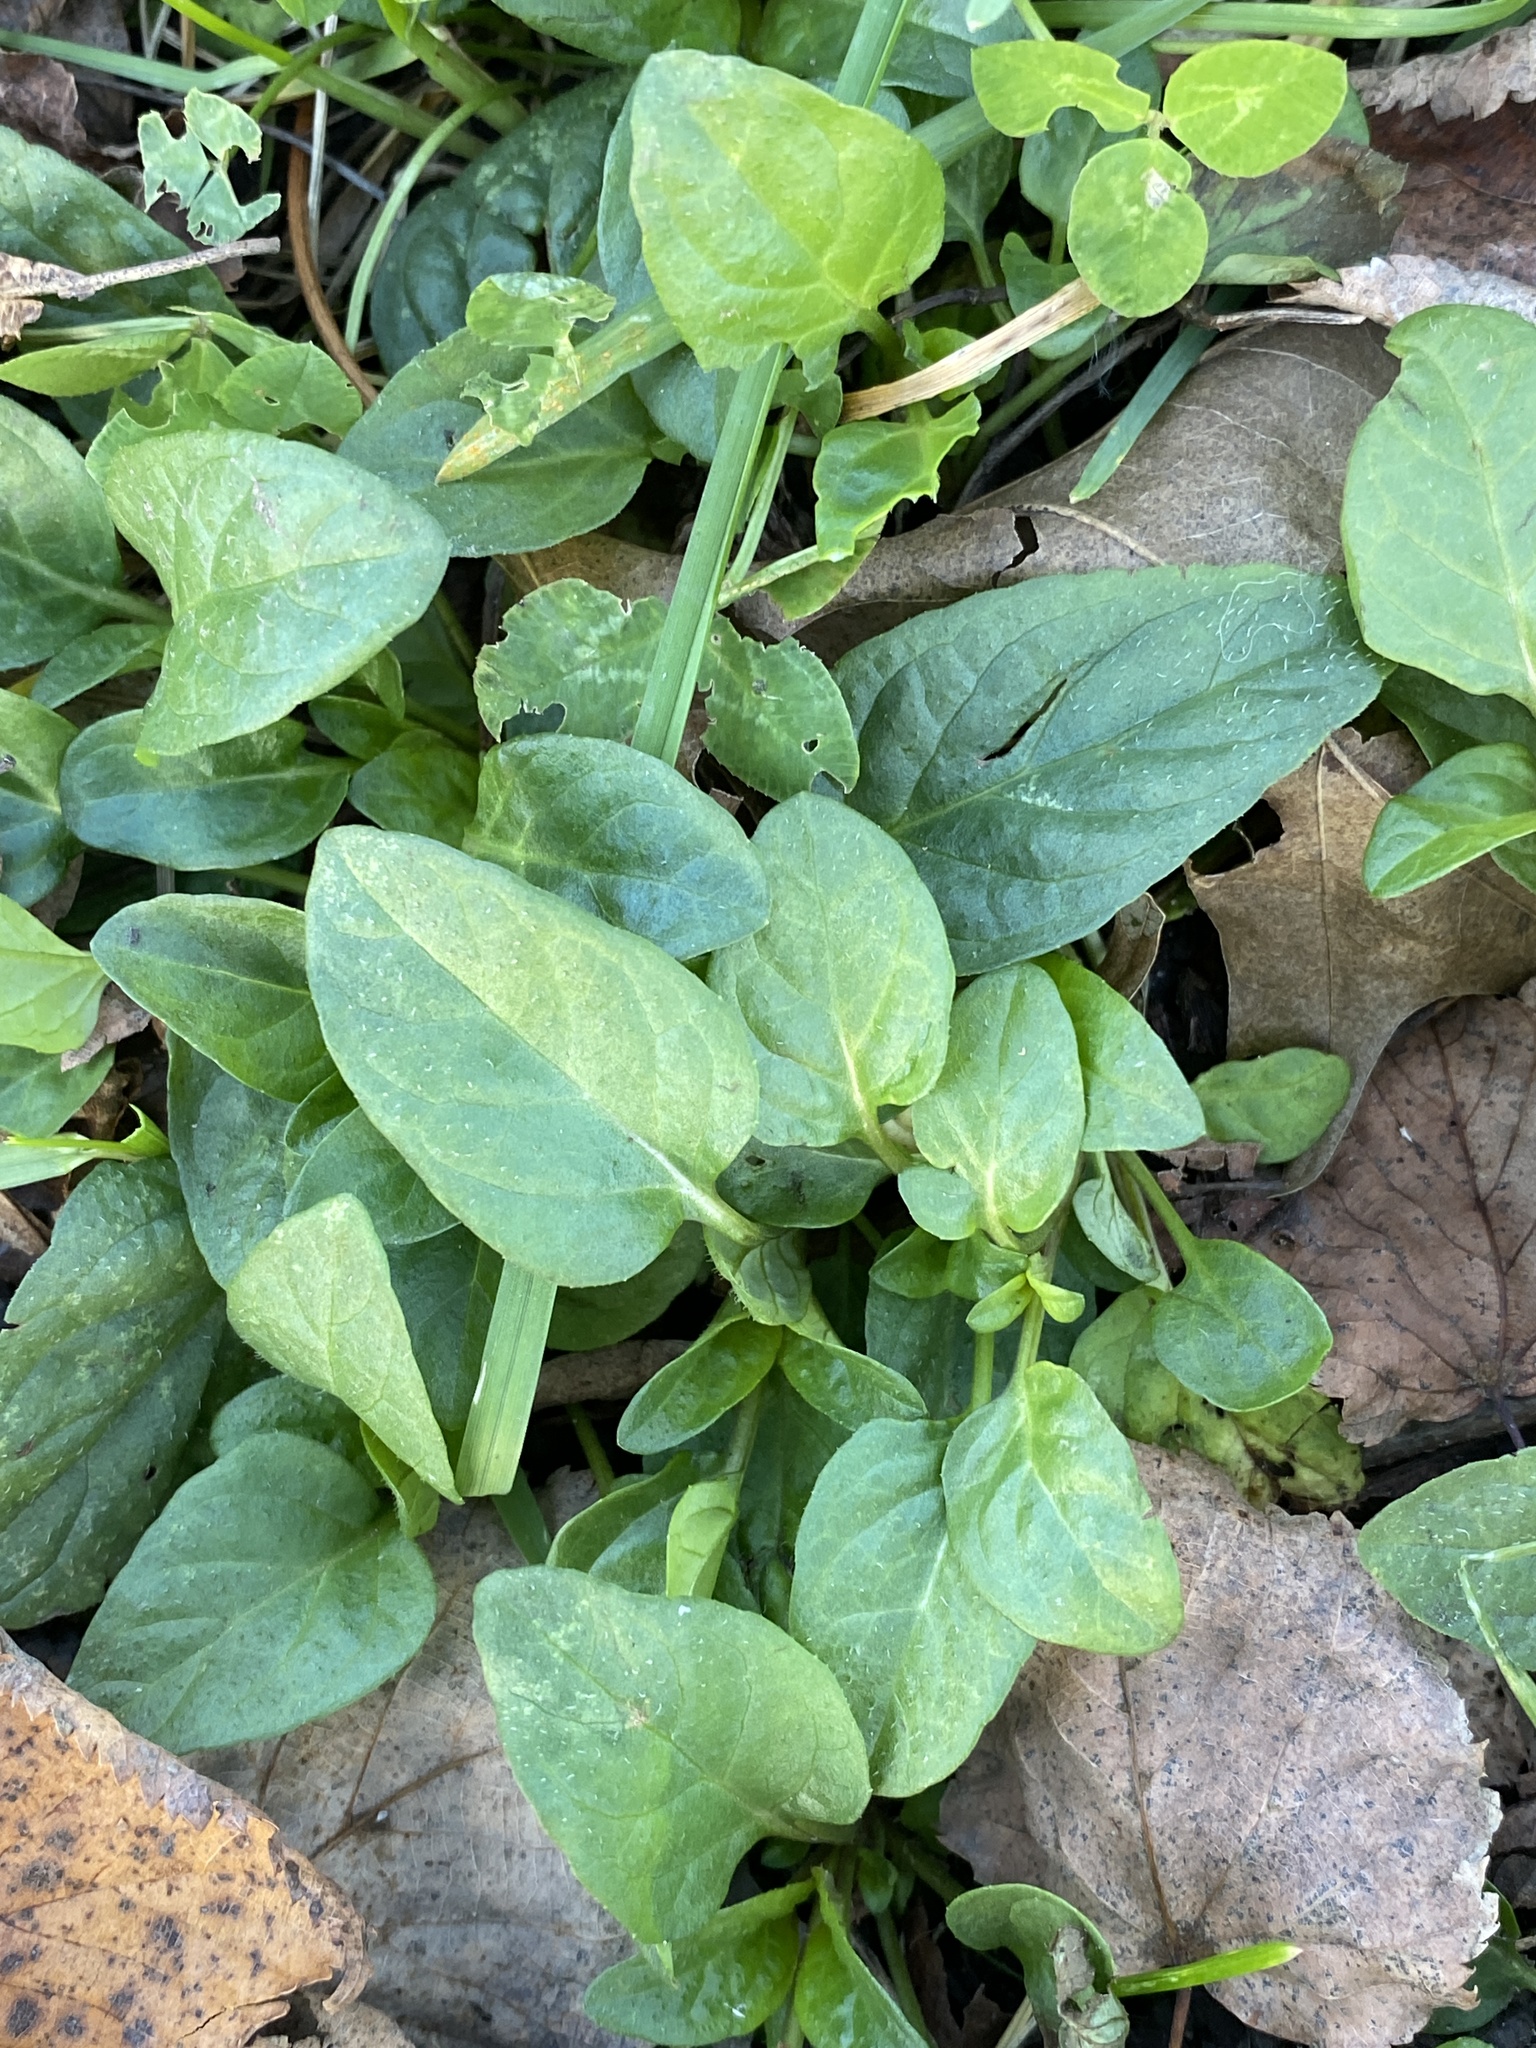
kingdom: Plantae
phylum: Tracheophyta
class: Magnoliopsida
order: Lamiales
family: Lamiaceae
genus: Prunella
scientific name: Prunella vulgaris
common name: Heal-all
